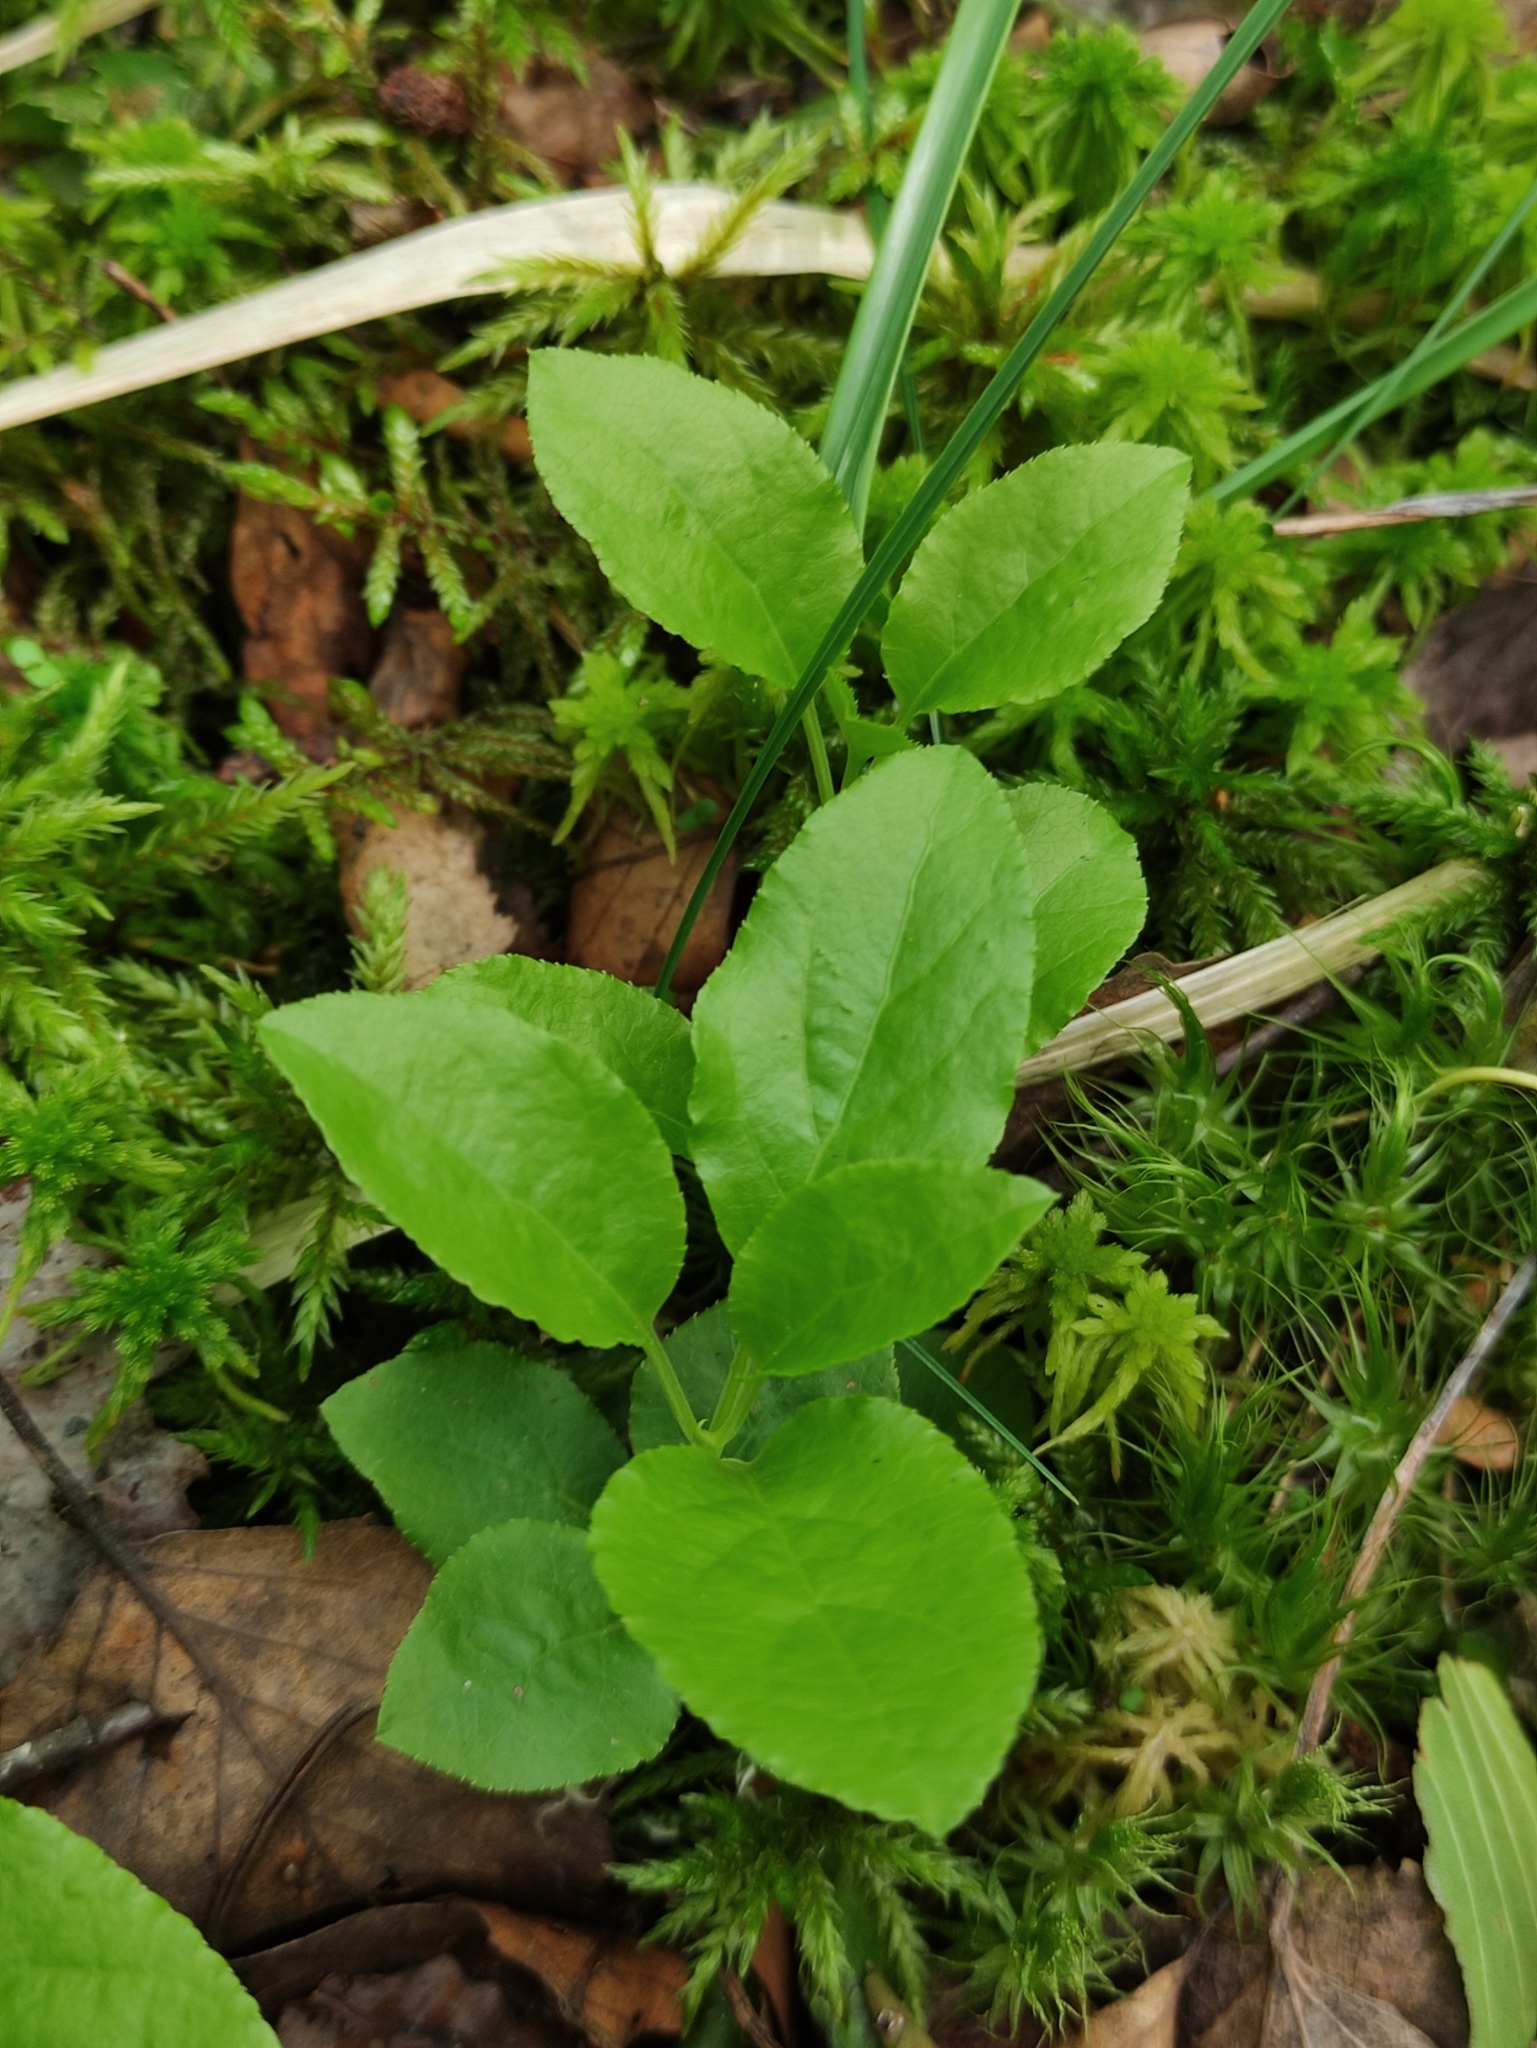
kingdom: Plantae
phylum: Tracheophyta
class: Magnoliopsida
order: Ericales
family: Ericaceae
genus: Orthilia
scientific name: Orthilia secunda
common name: One-sided orthilia
